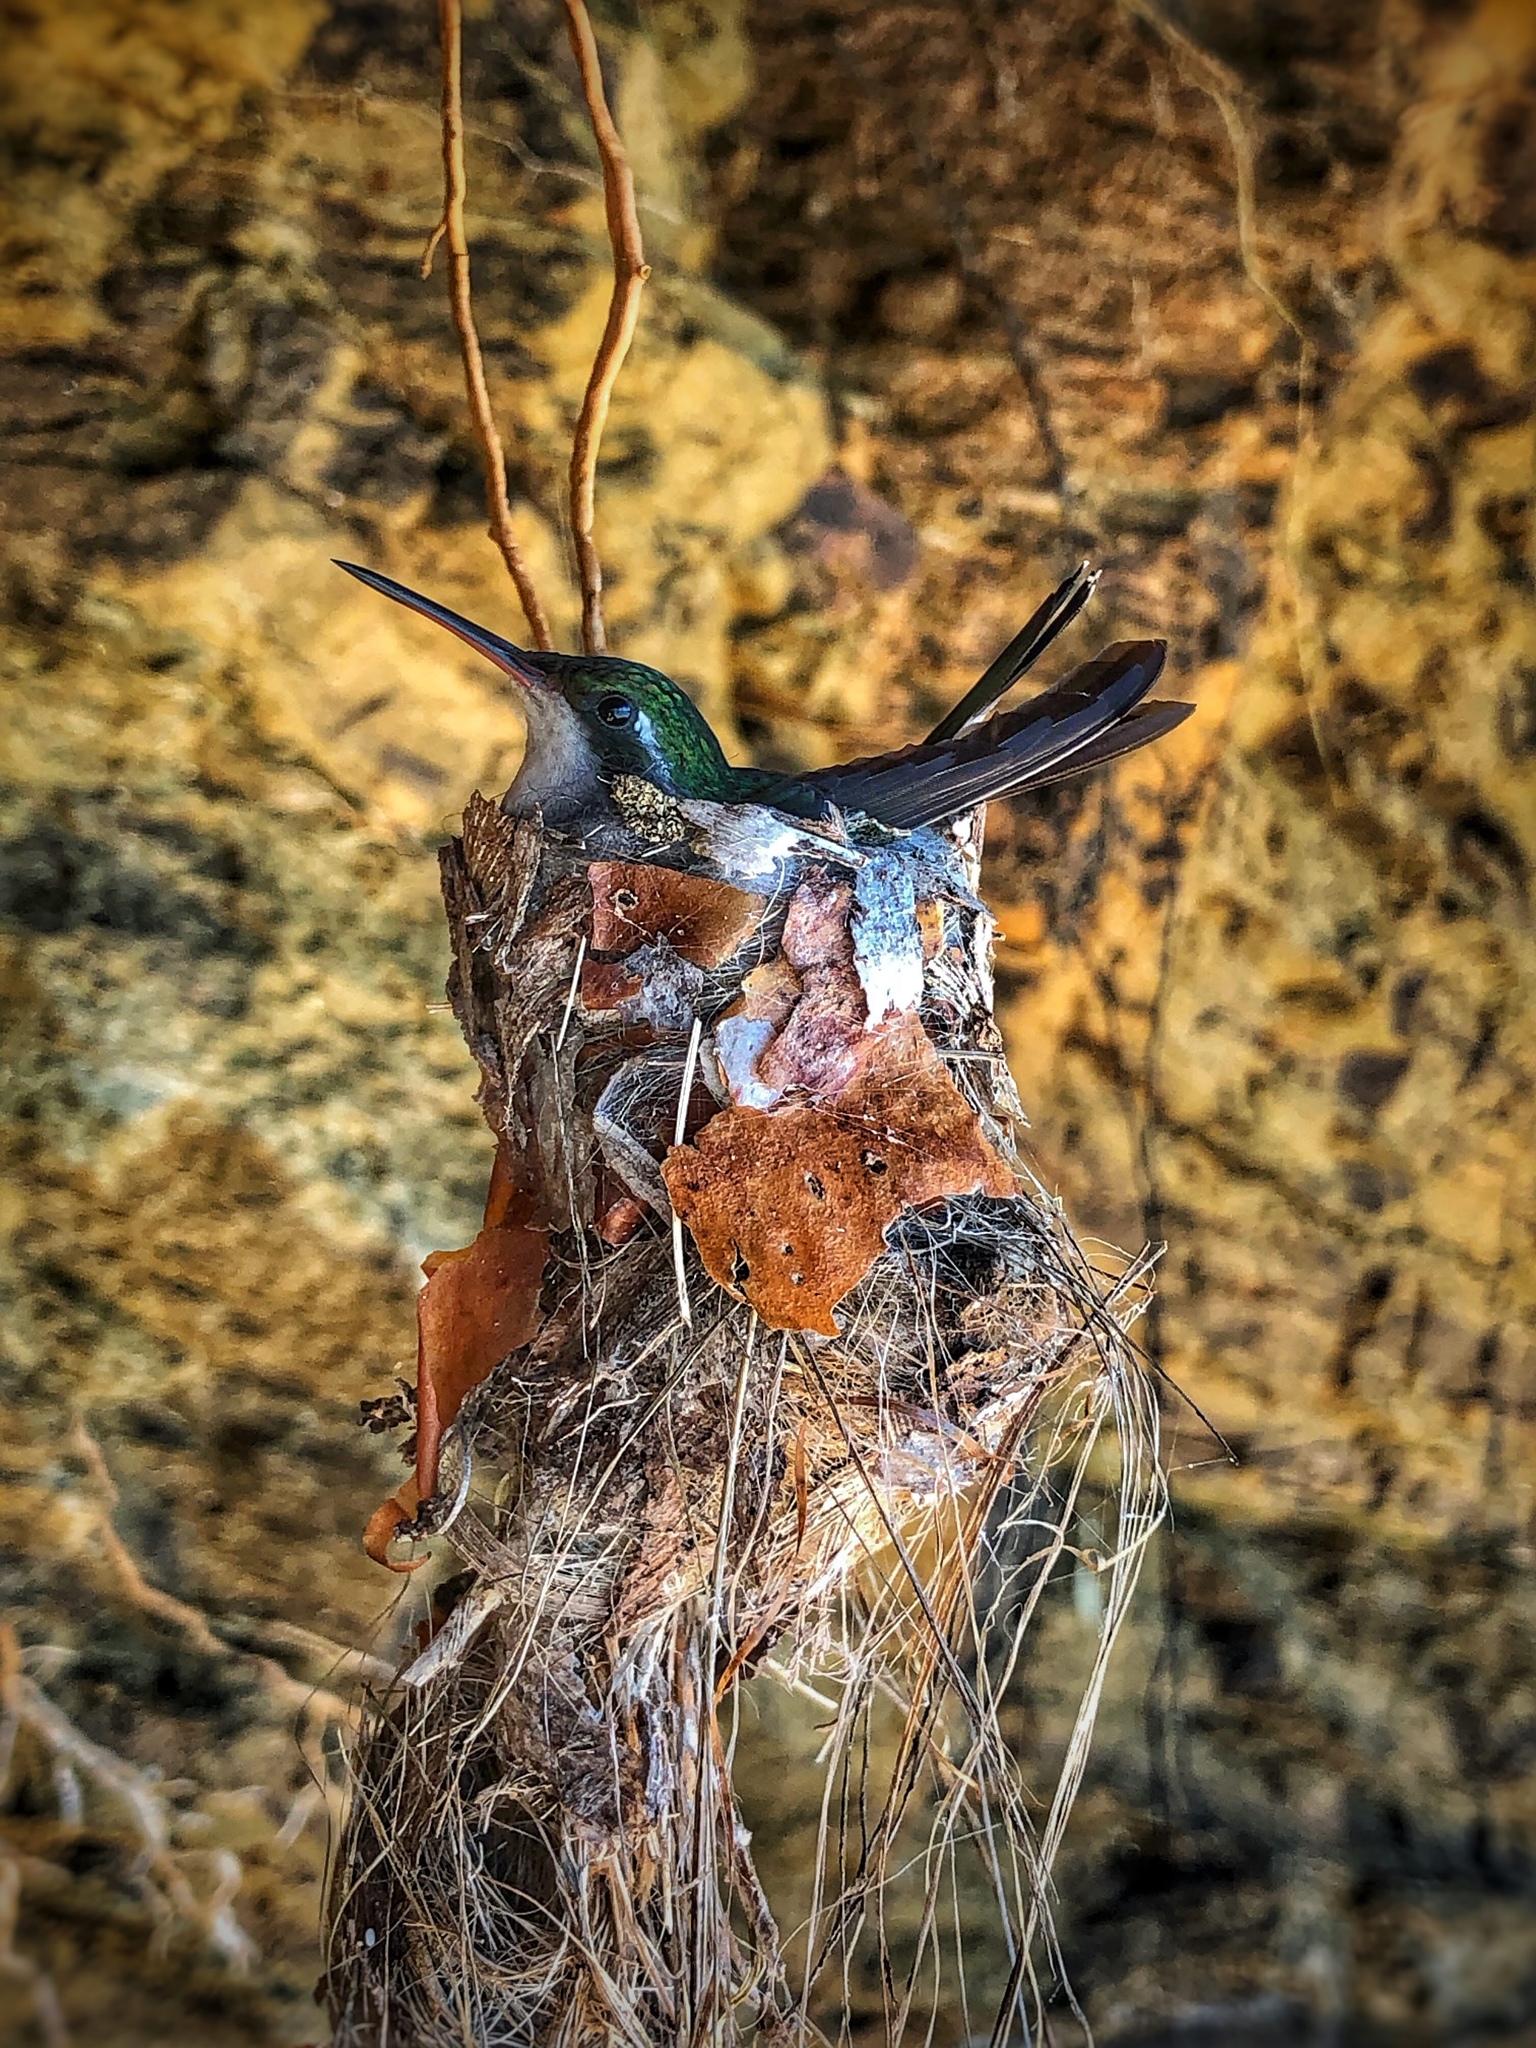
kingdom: Animalia
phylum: Chordata
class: Aves
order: Apodiformes
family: Trochilidae
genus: Cynanthus
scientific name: Cynanthus canivetii
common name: Canivet's emerald
